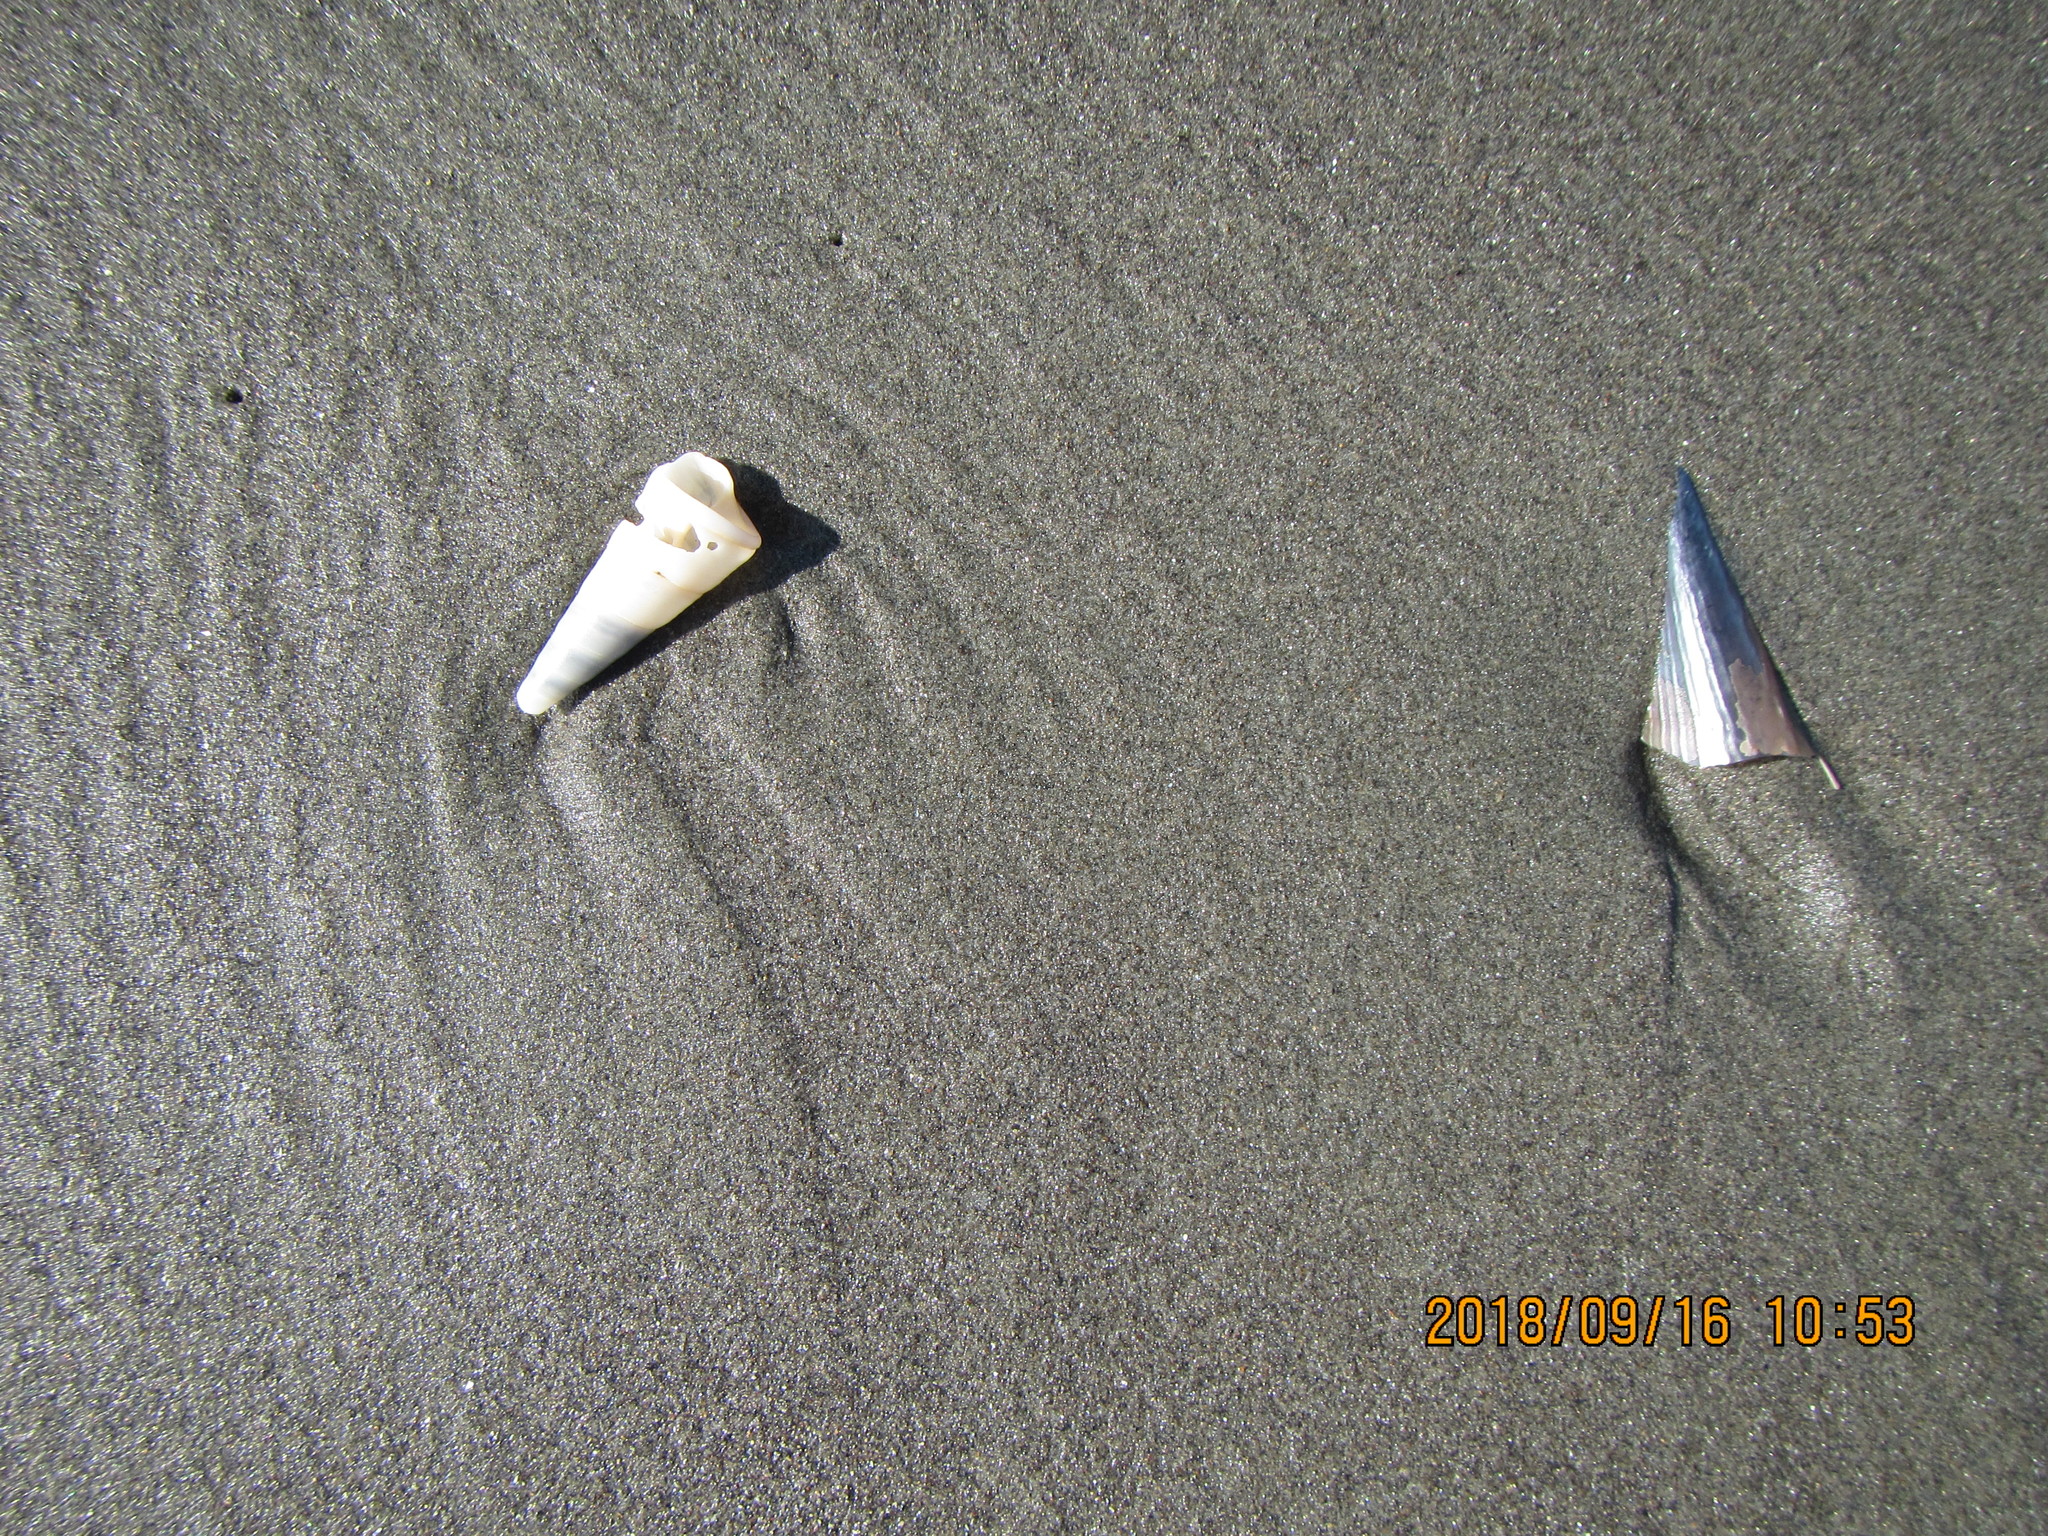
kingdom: Animalia
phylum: Mollusca
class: Gastropoda
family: Turritellidae
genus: Maoricolpus
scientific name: Maoricolpus roseus
